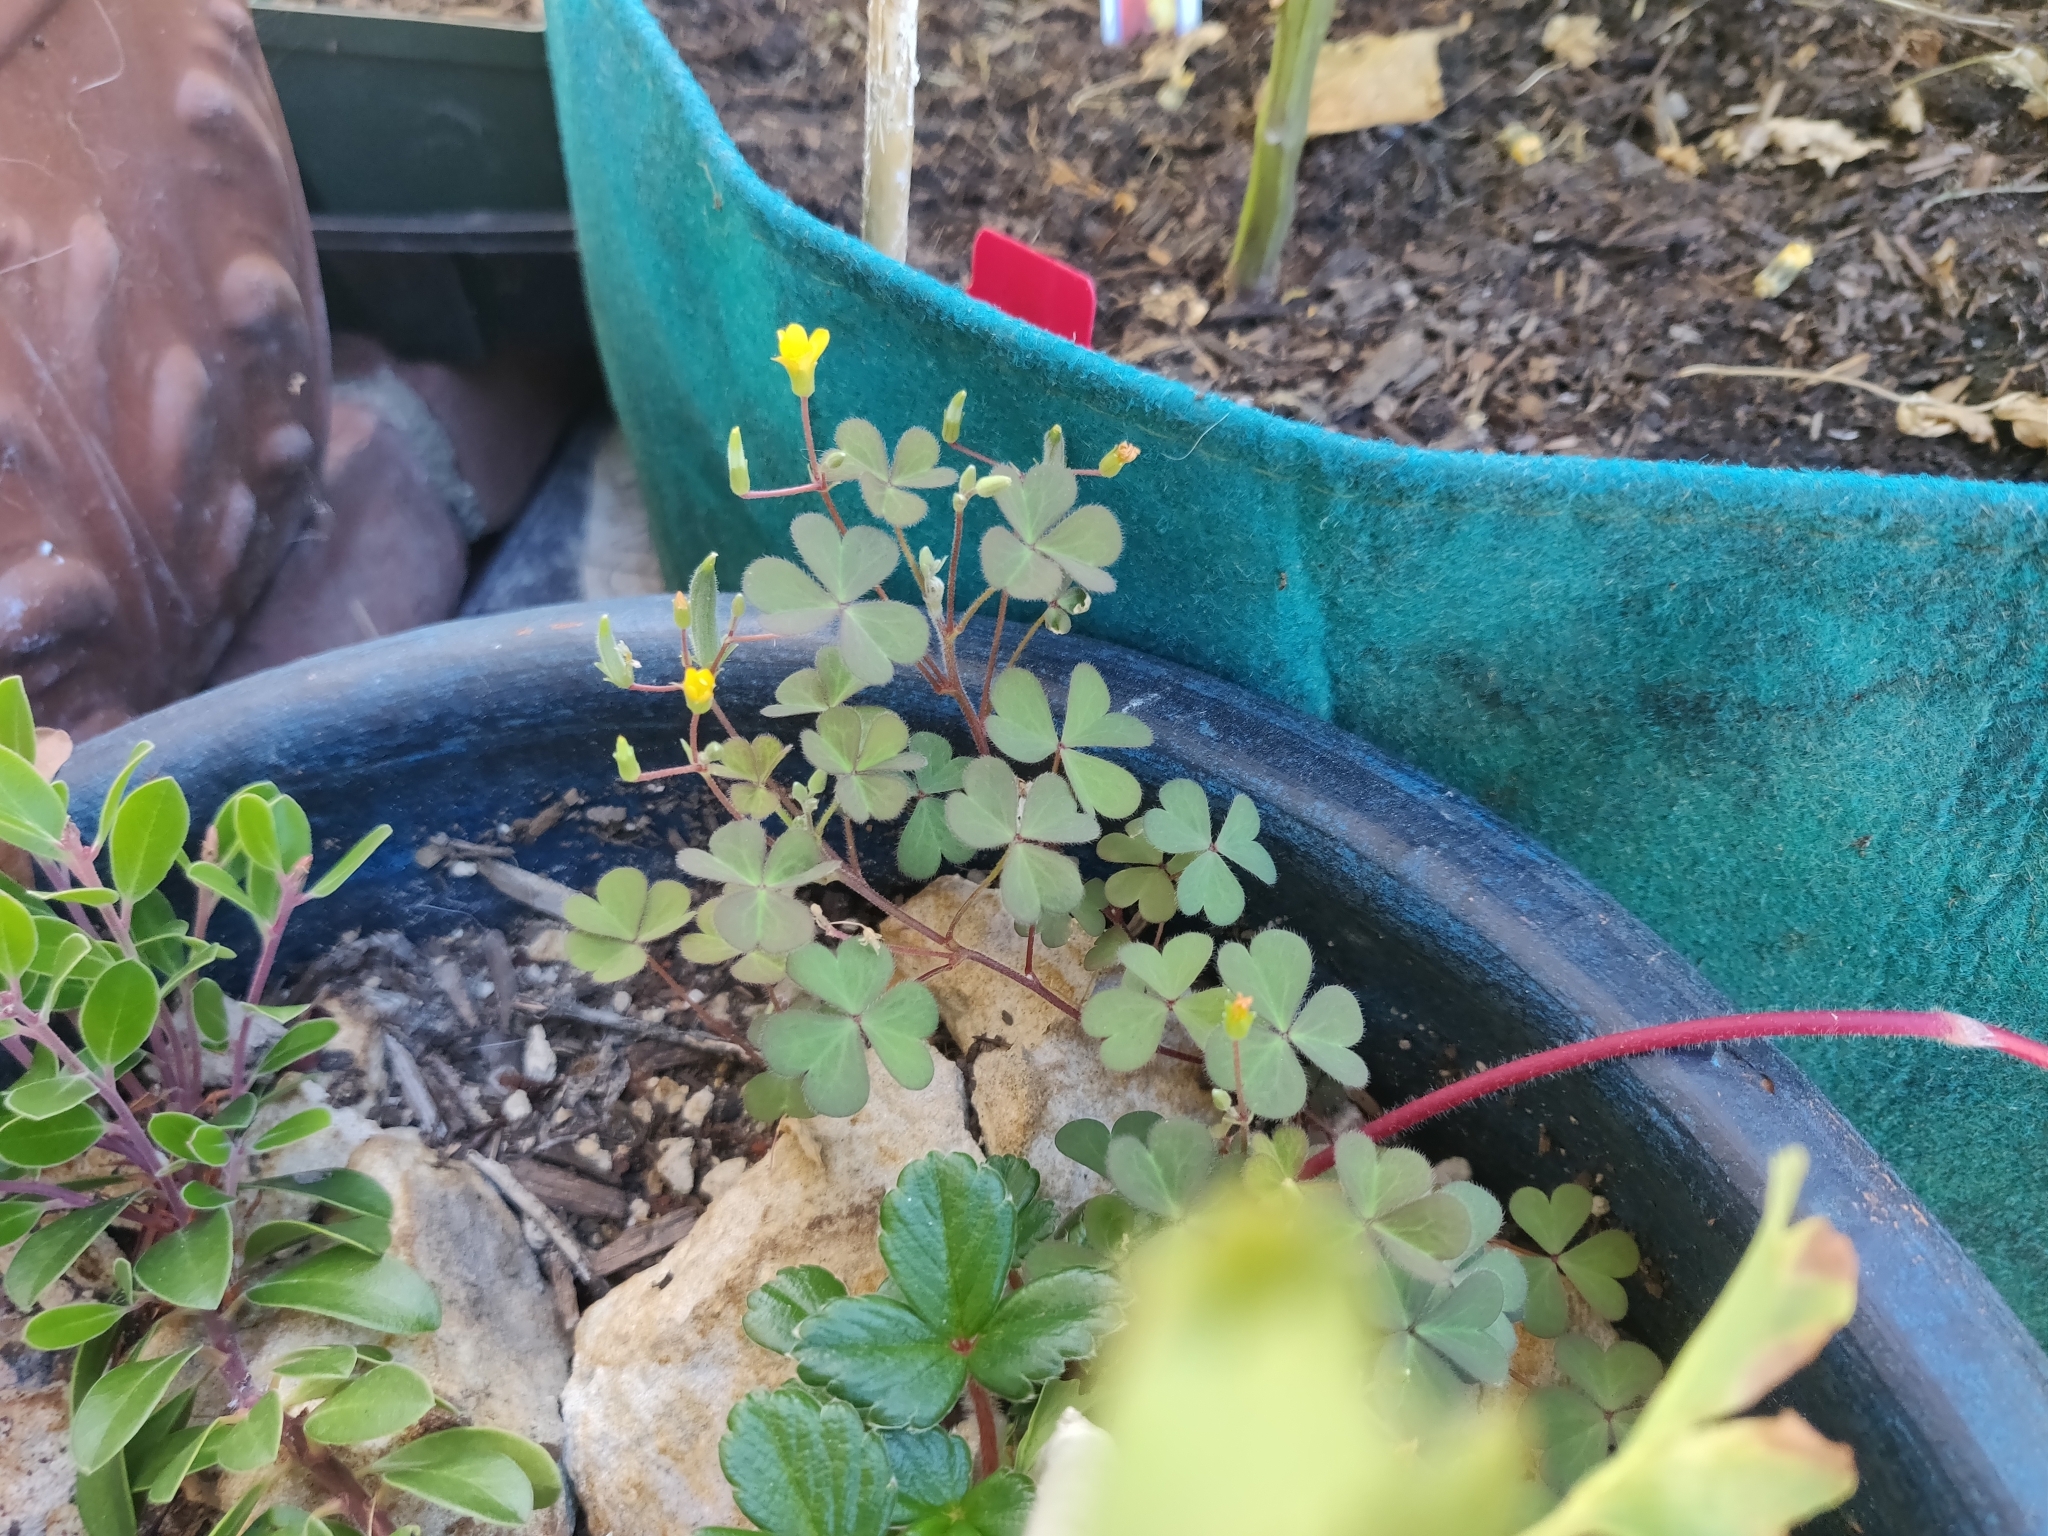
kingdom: Plantae
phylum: Tracheophyta
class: Magnoliopsida
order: Oxalidales
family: Oxalidaceae
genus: Oxalis
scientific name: Oxalis corniculata
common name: Procumbent yellow-sorrel
